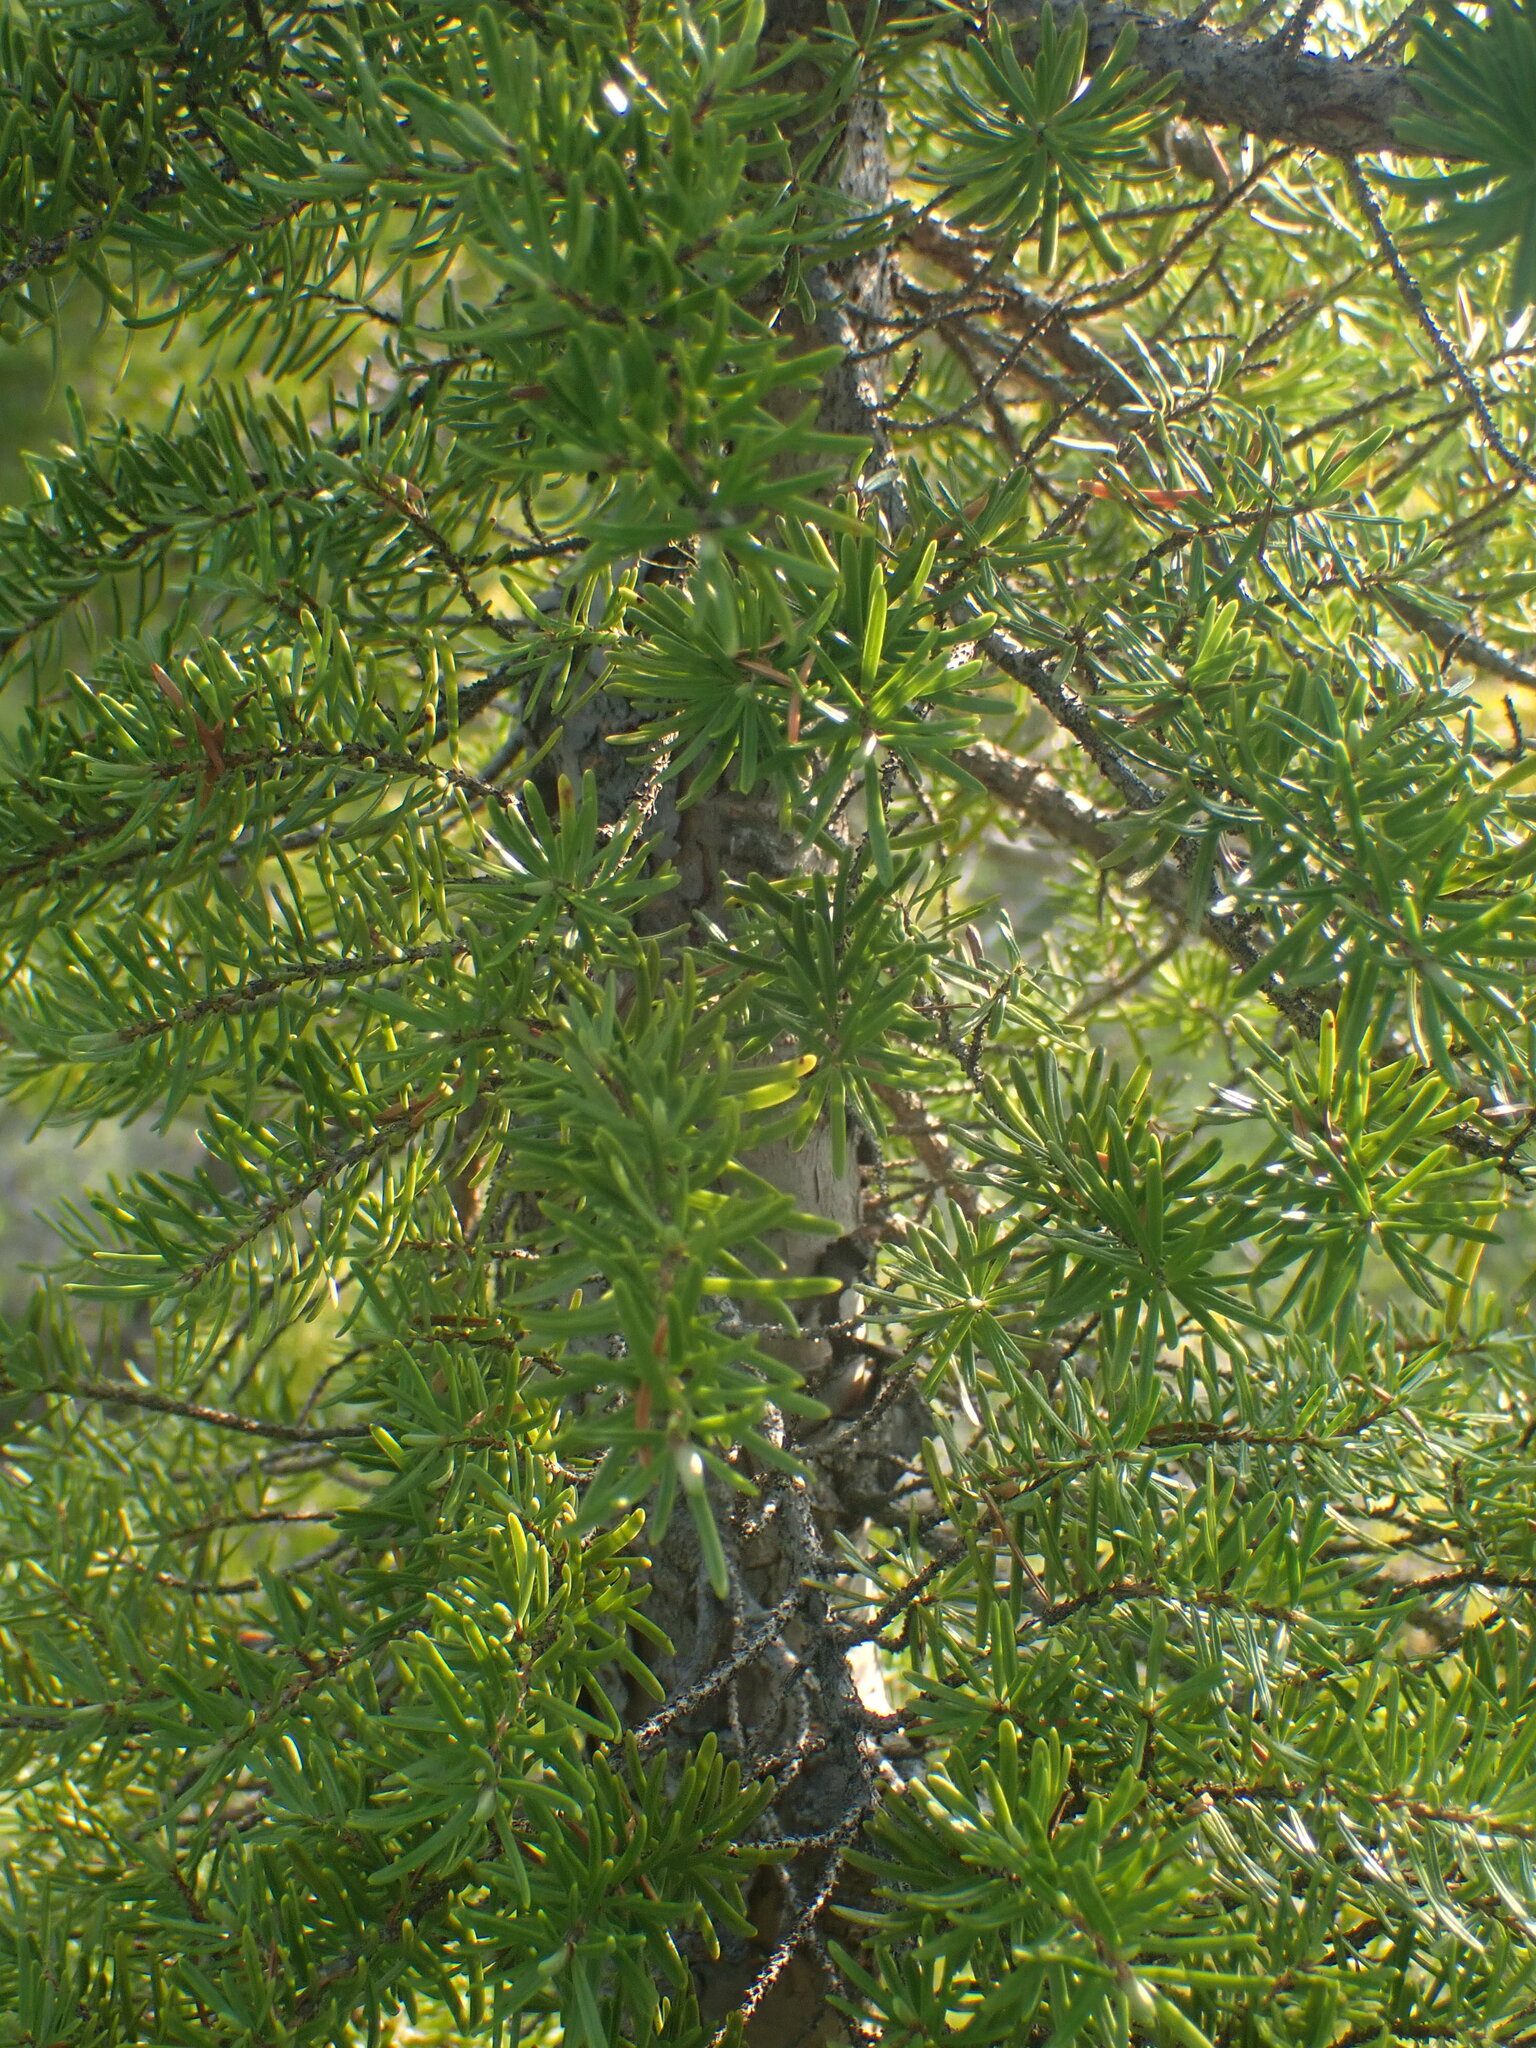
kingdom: Plantae
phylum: Tracheophyta
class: Pinopsida
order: Pinales
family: Pinaceae
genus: Tsuga
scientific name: Tsuga mertensiana
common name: Mountain hemlock
